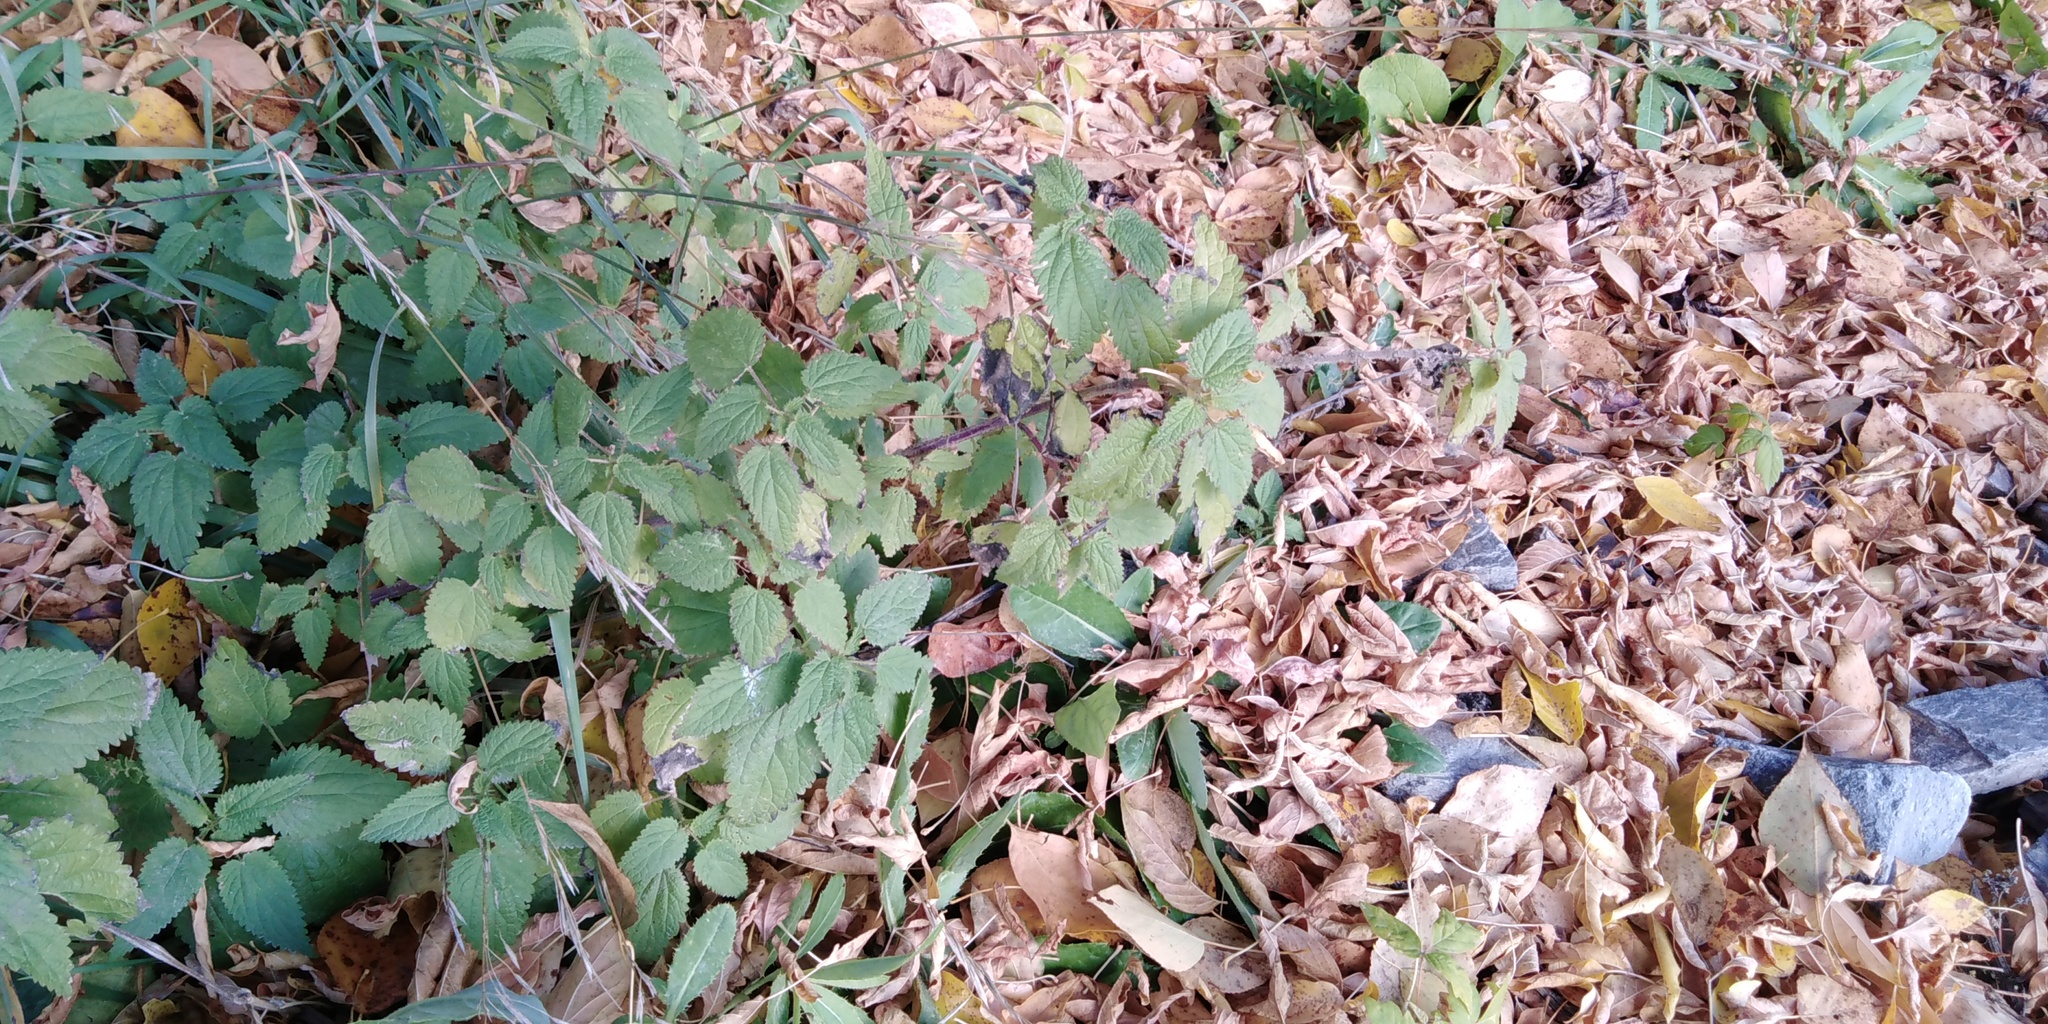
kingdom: Plantae
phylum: Tracheophyta
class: Magnoliopsida
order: Rosales
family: Urticaceae
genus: Urtica
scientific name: Urtica dioica
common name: Common nettle
